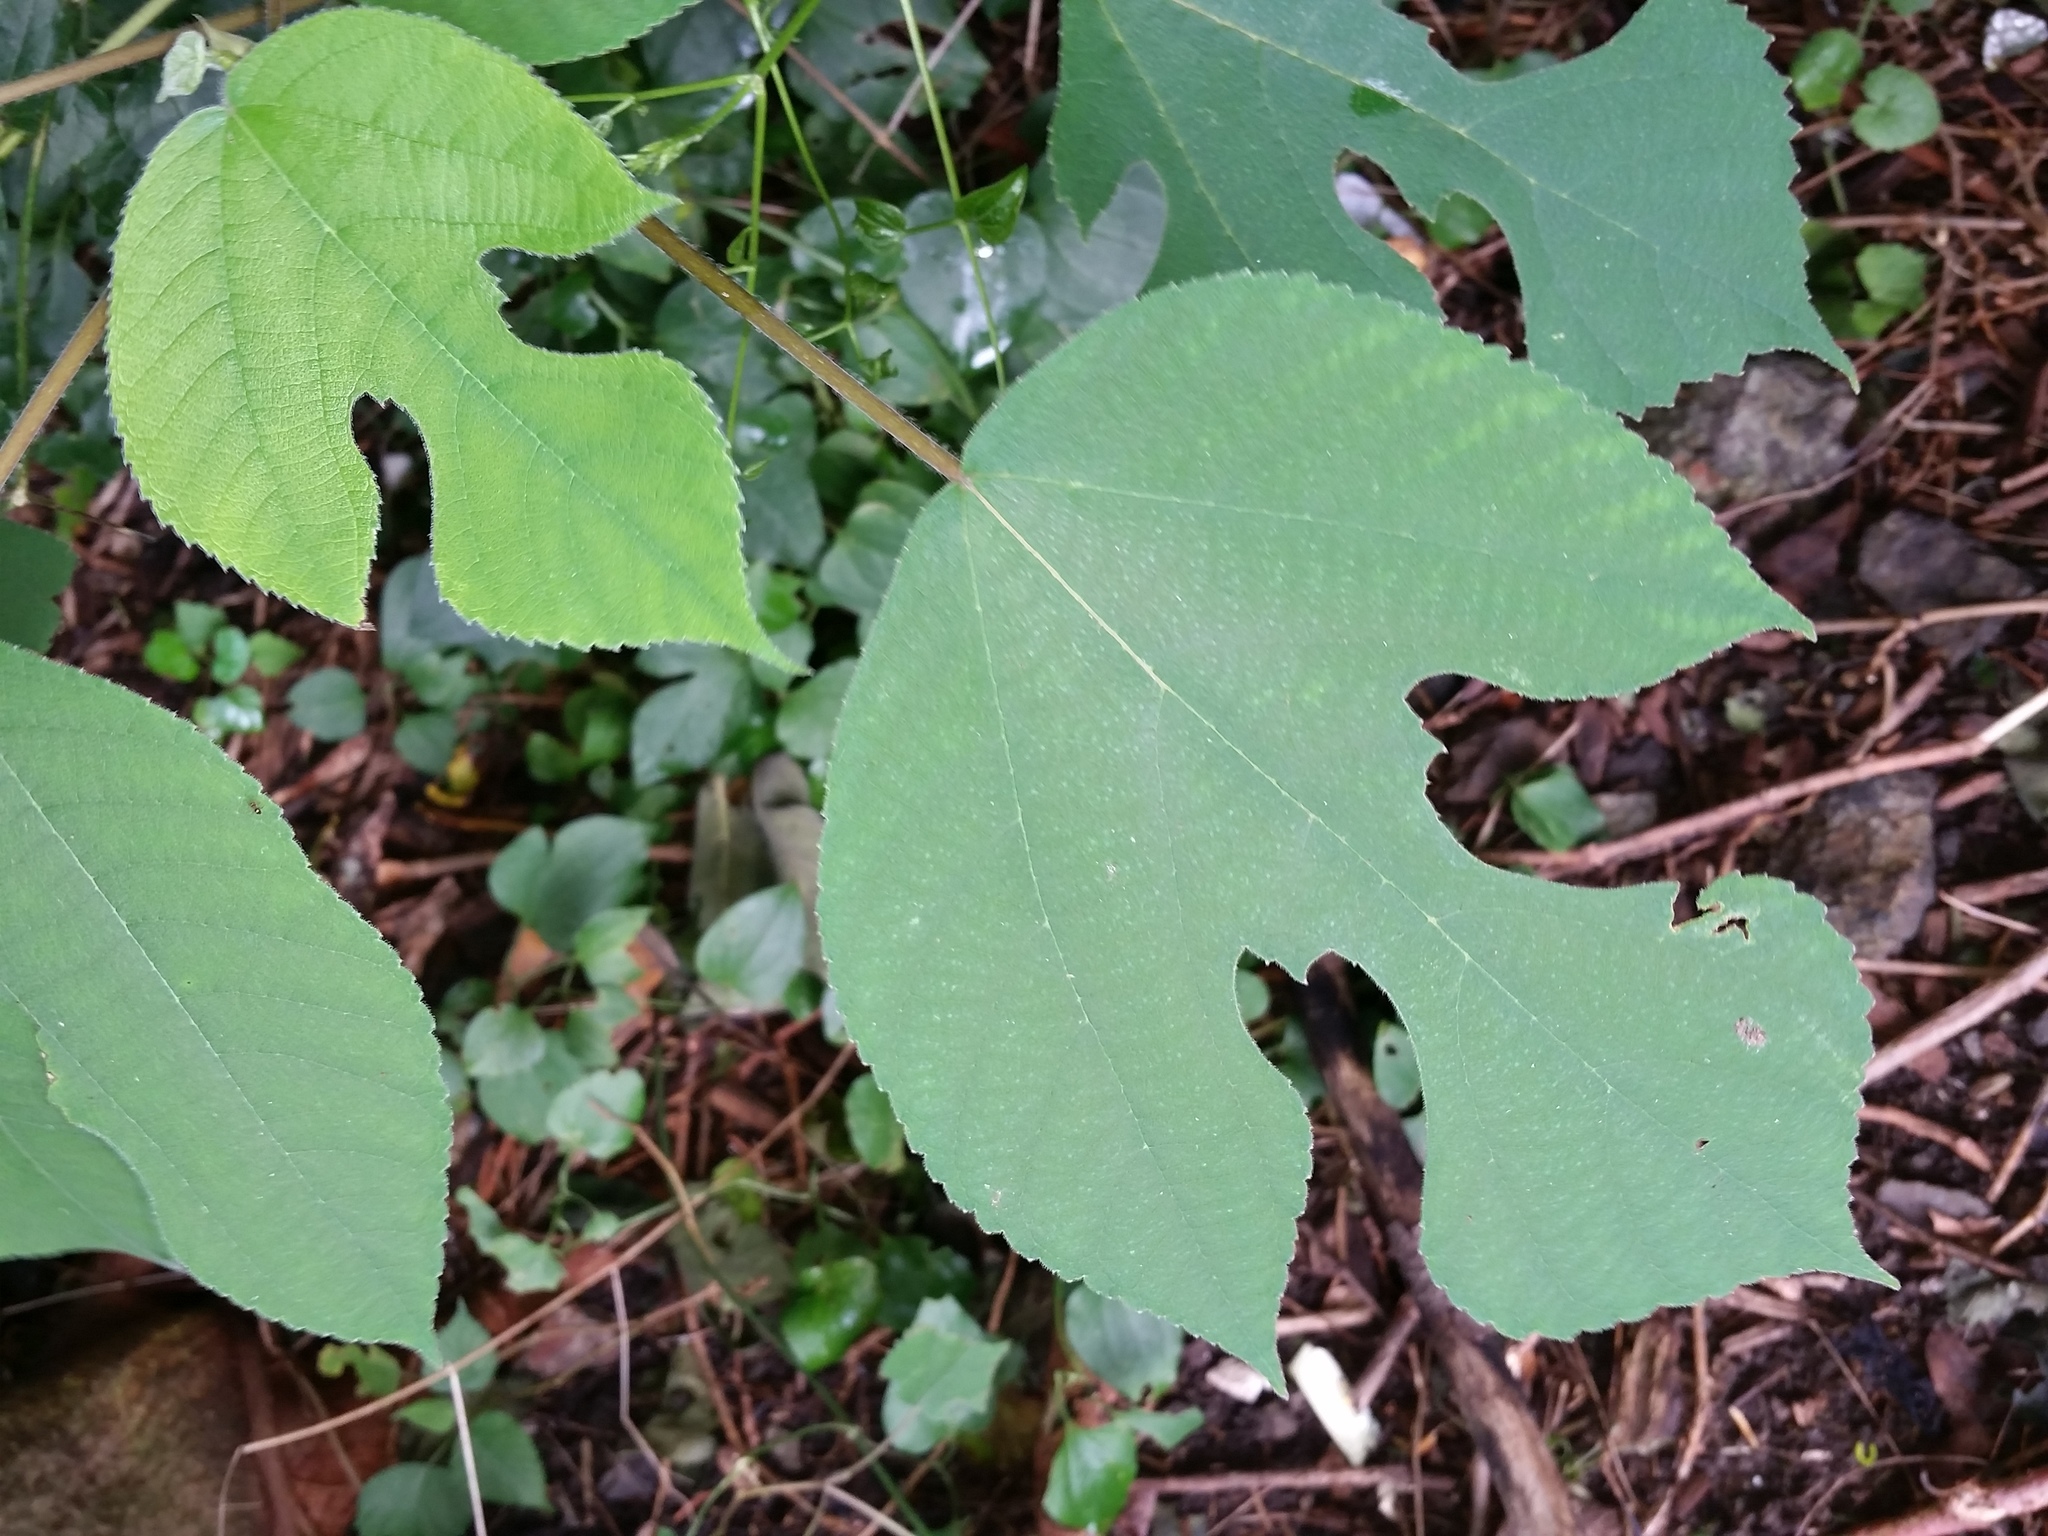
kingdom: Plantae
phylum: Tracheophyta
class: Magnoliopsida
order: Rosales
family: Moraceae
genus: Broussonetia
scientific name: Broussonetia papyrifera
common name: Paper mulberry
